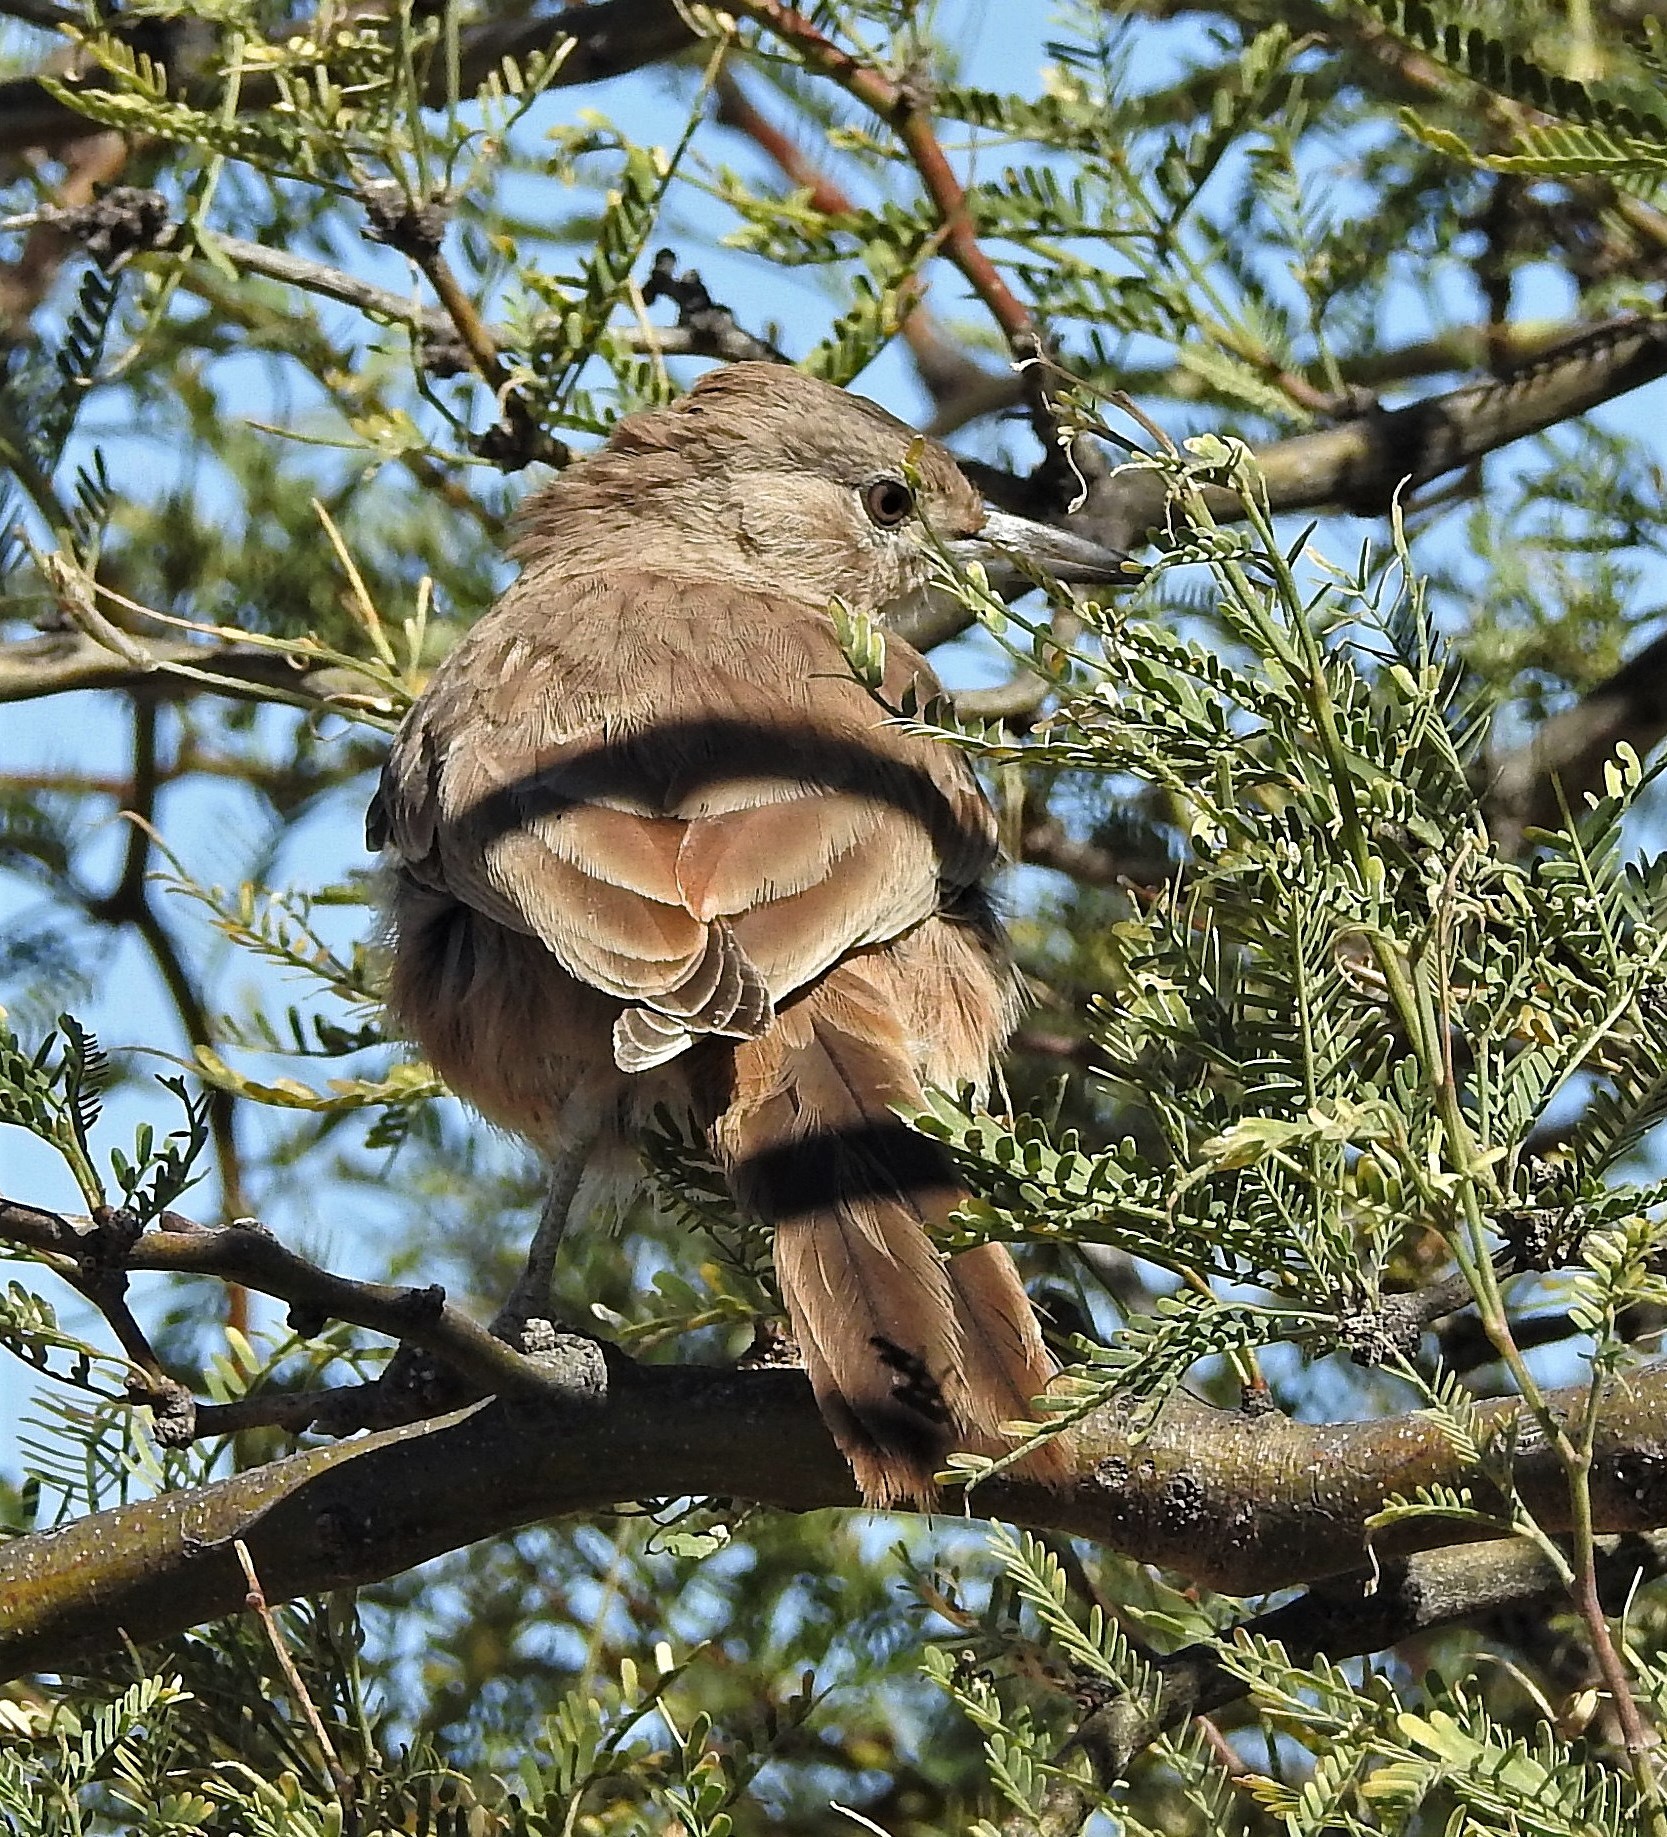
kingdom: Animalia
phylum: Chordata
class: Aves
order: Passeriformes
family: Furnariidae
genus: Pseudoseisura
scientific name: Pseudoseisura gutturalis
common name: White-throated cacholote
